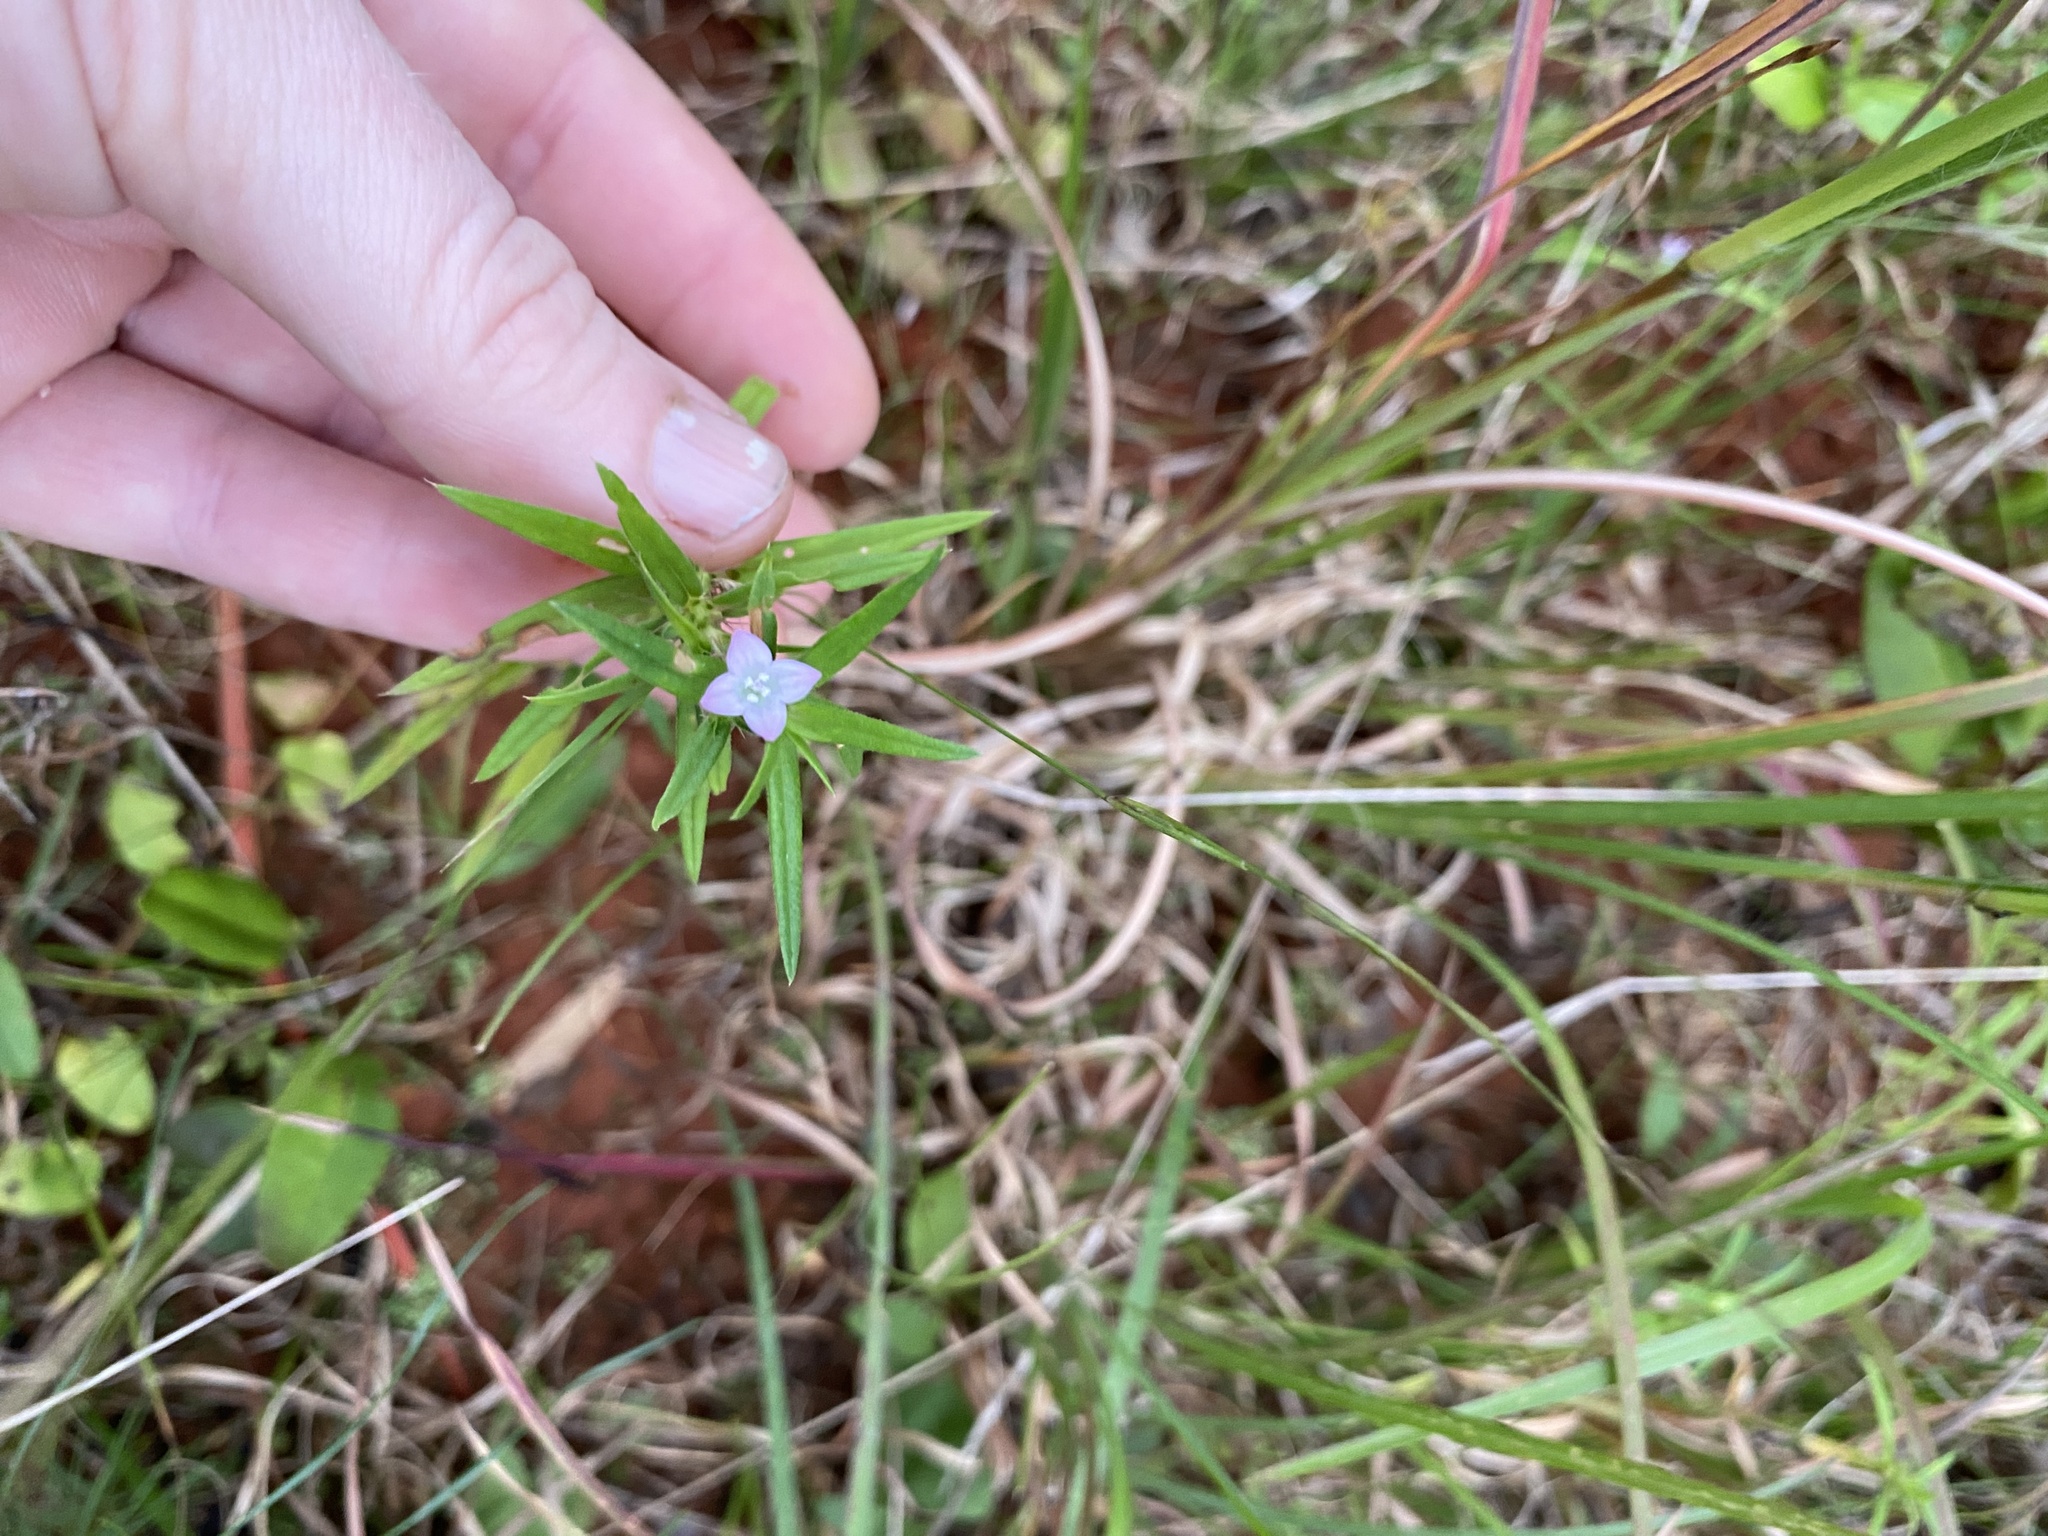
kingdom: Plantae
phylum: Tracheophyta
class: Magnoliopsida
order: Gentianales
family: Rubiaceae
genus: Hexasepalum
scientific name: Hexasepalum teres
